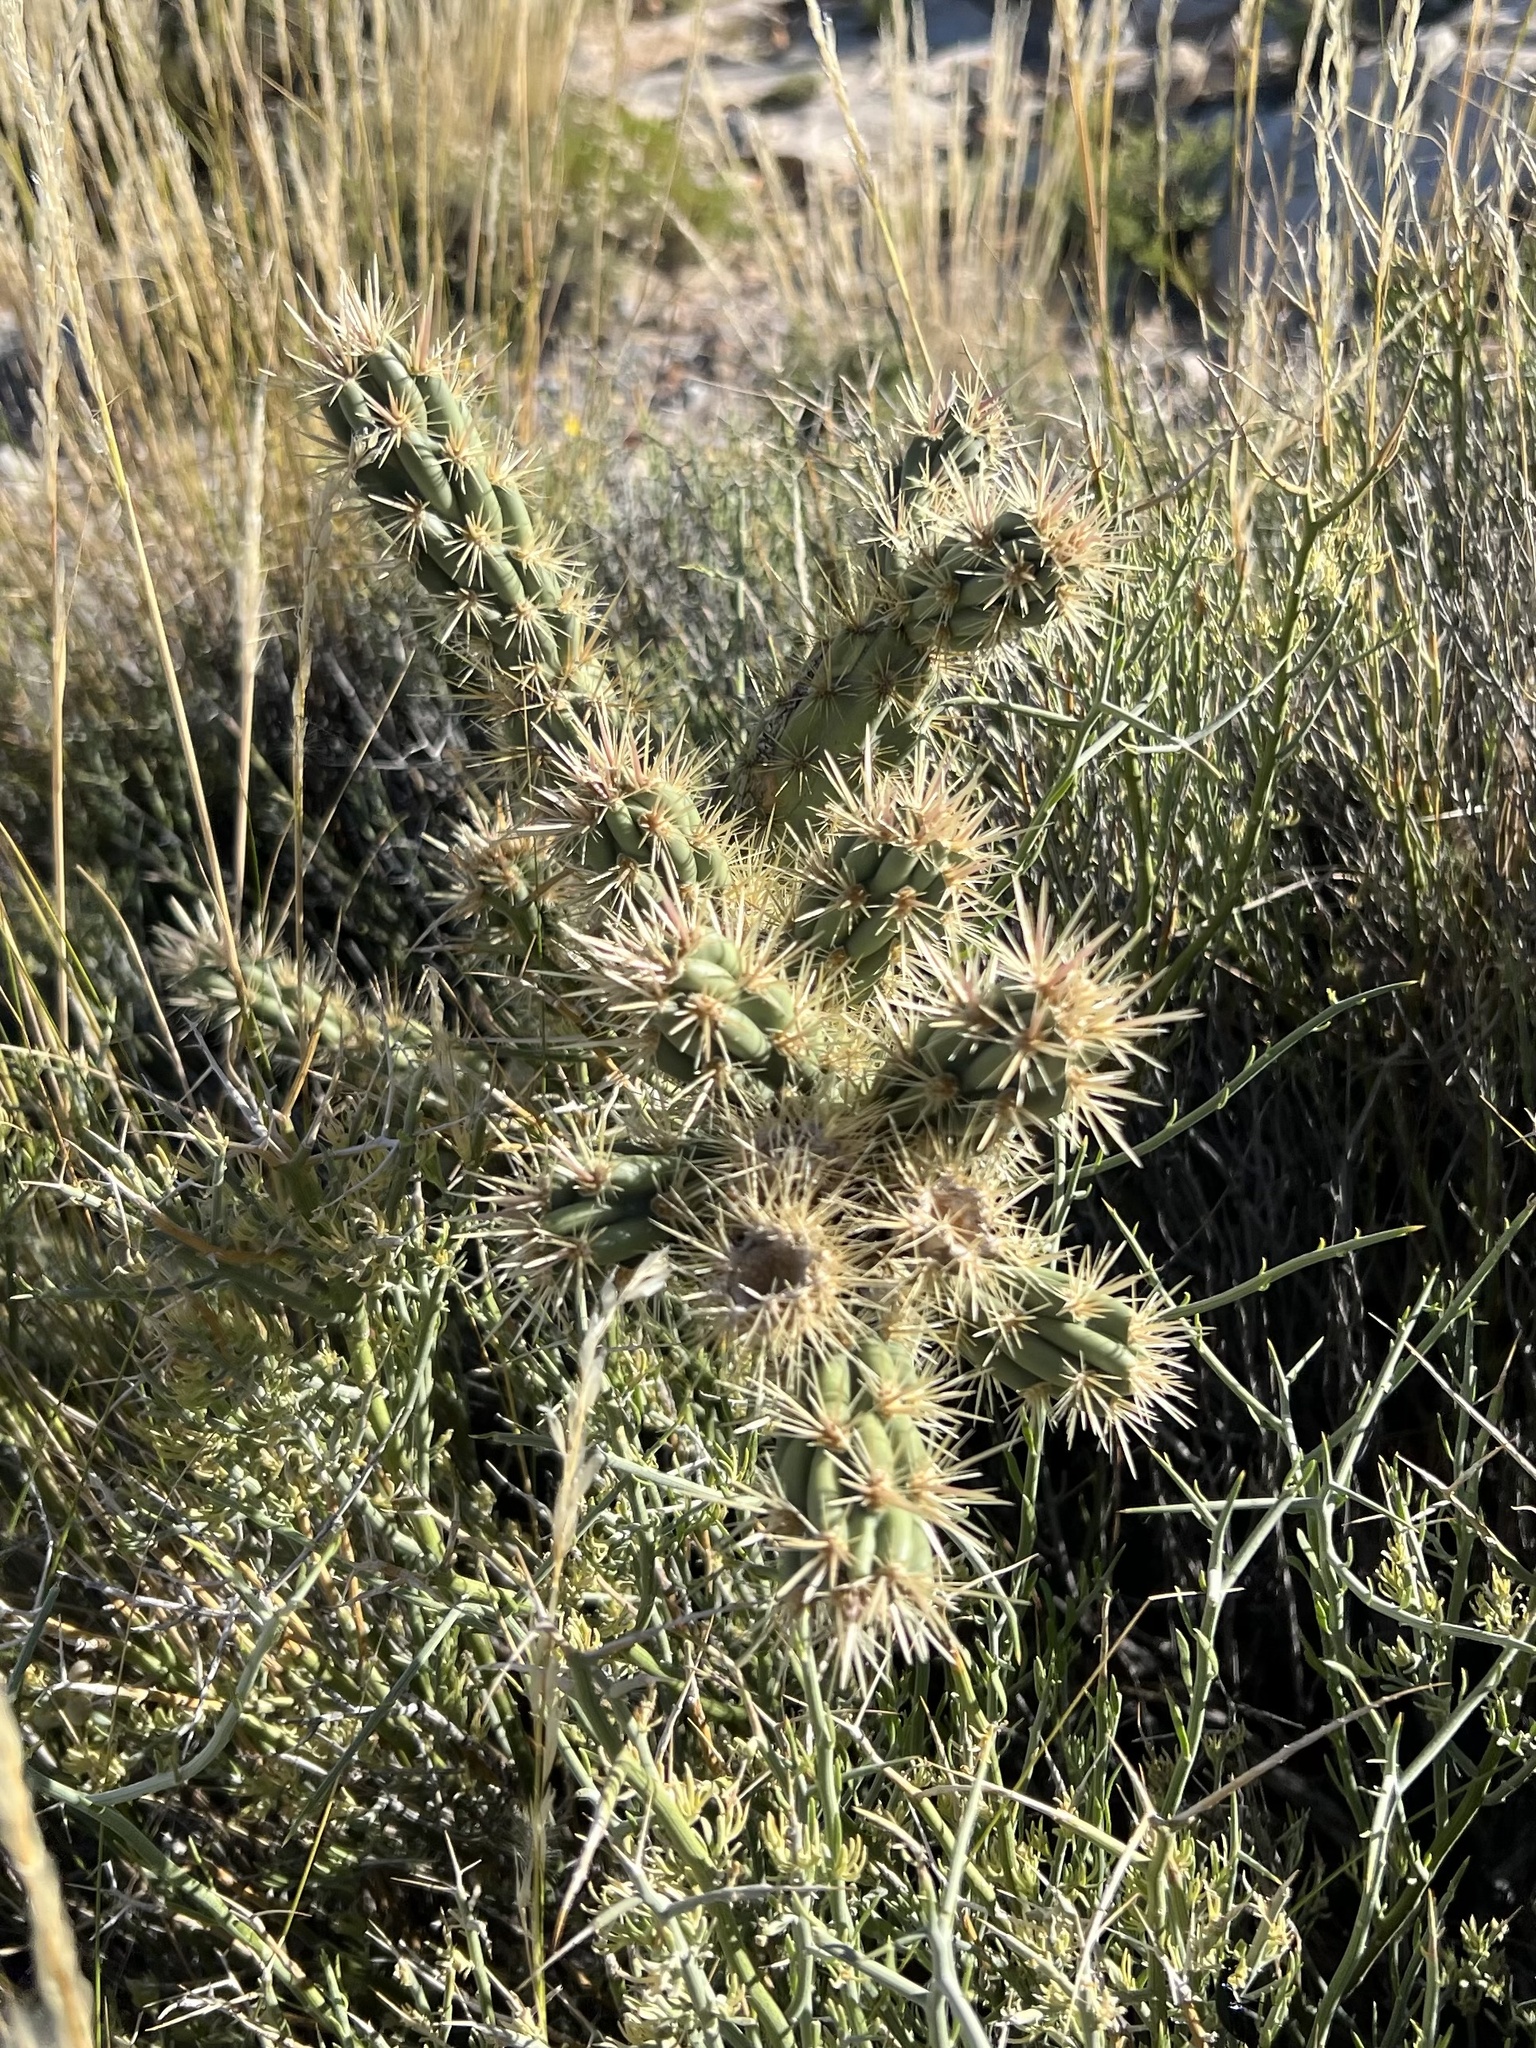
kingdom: Plantae
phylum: Tracheophyta
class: Magnoliopsida
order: Caryophyllales
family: Cactaceae
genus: Cylindropuntia
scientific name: Cylindropuntia echinocarpa
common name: Ground cholla
